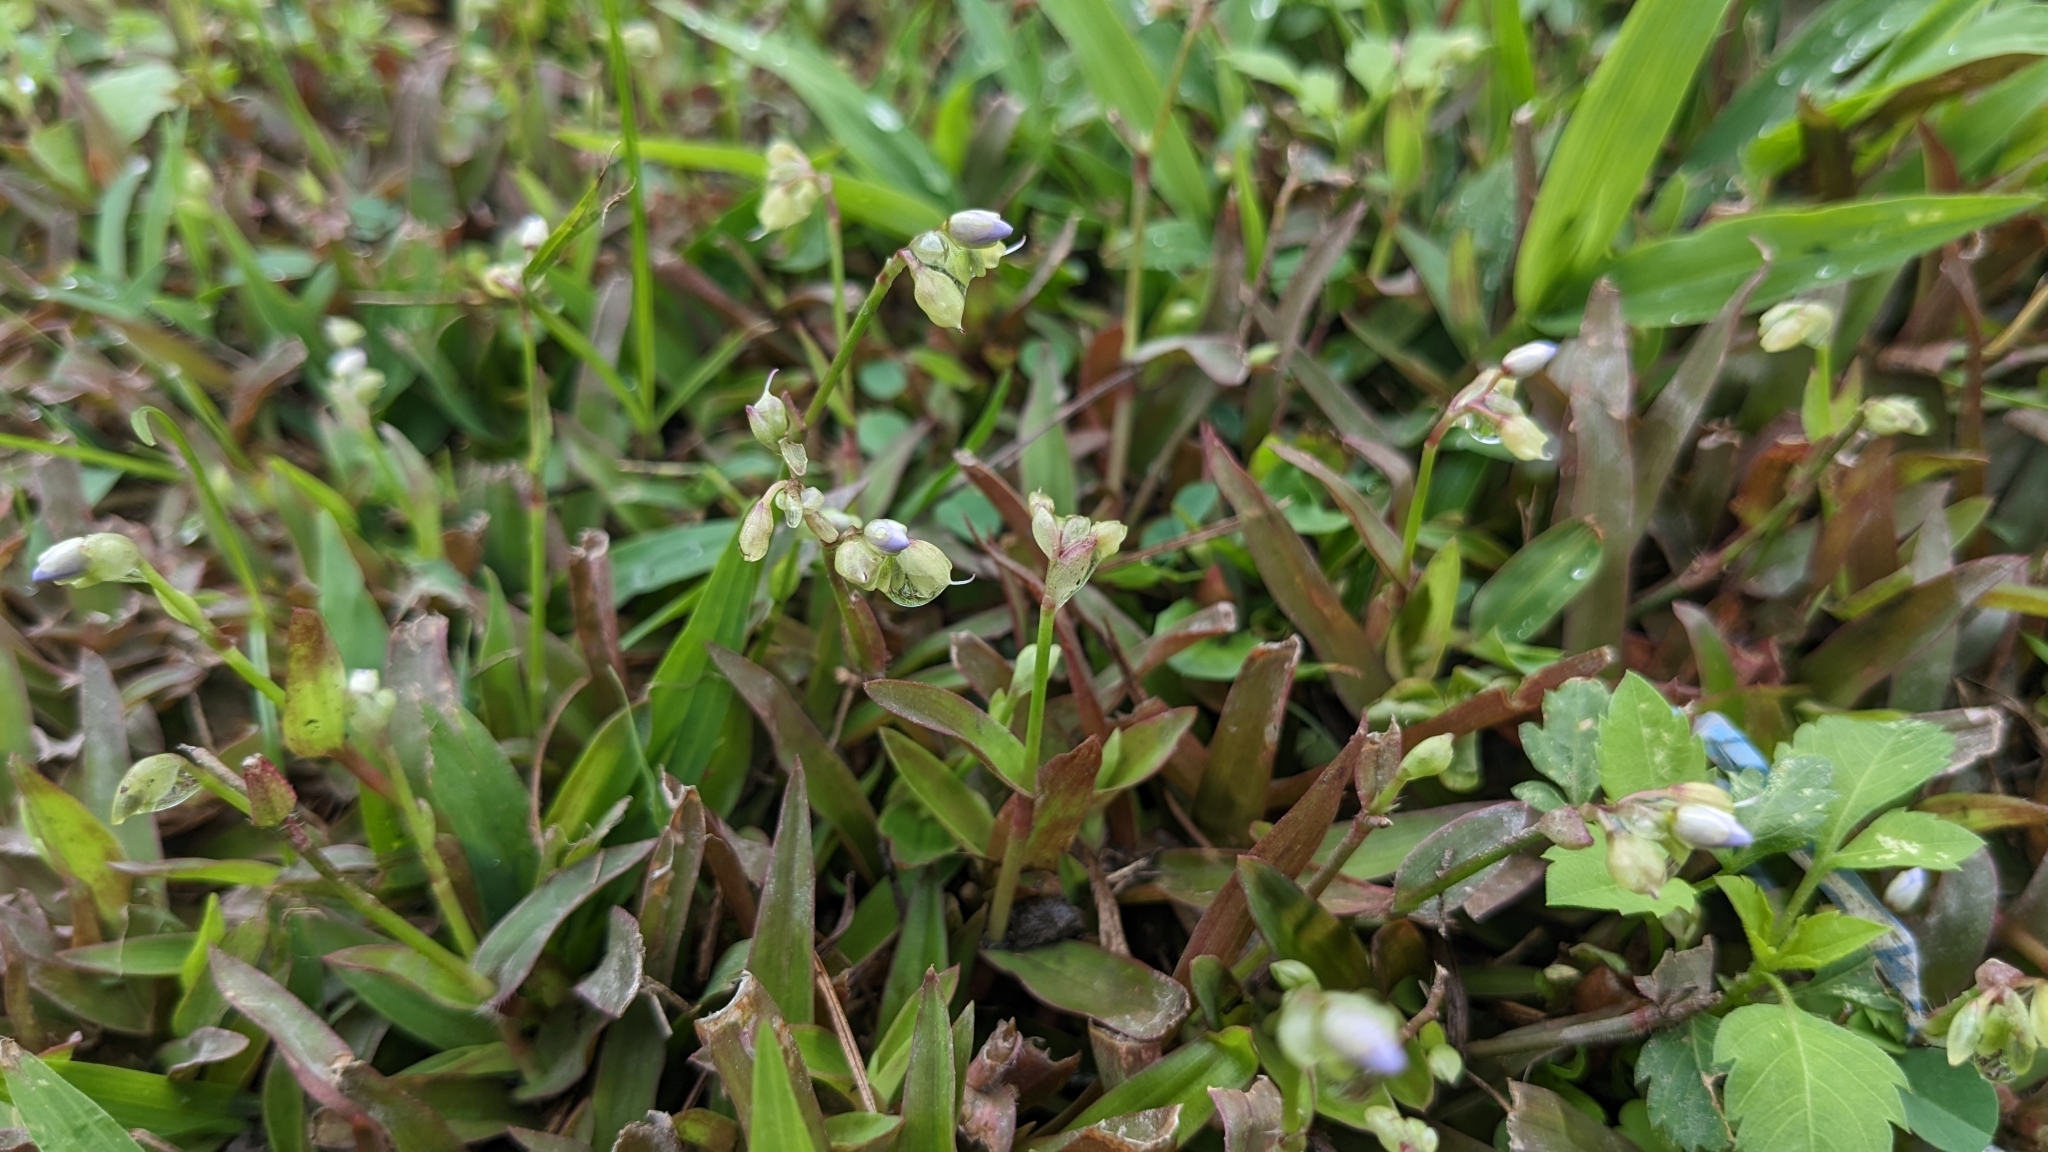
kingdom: Plantae
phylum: Tracheophyta
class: Liliopsida
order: Commelinales
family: Commelinaceae
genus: Murdannia
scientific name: Murdannia loriformis
